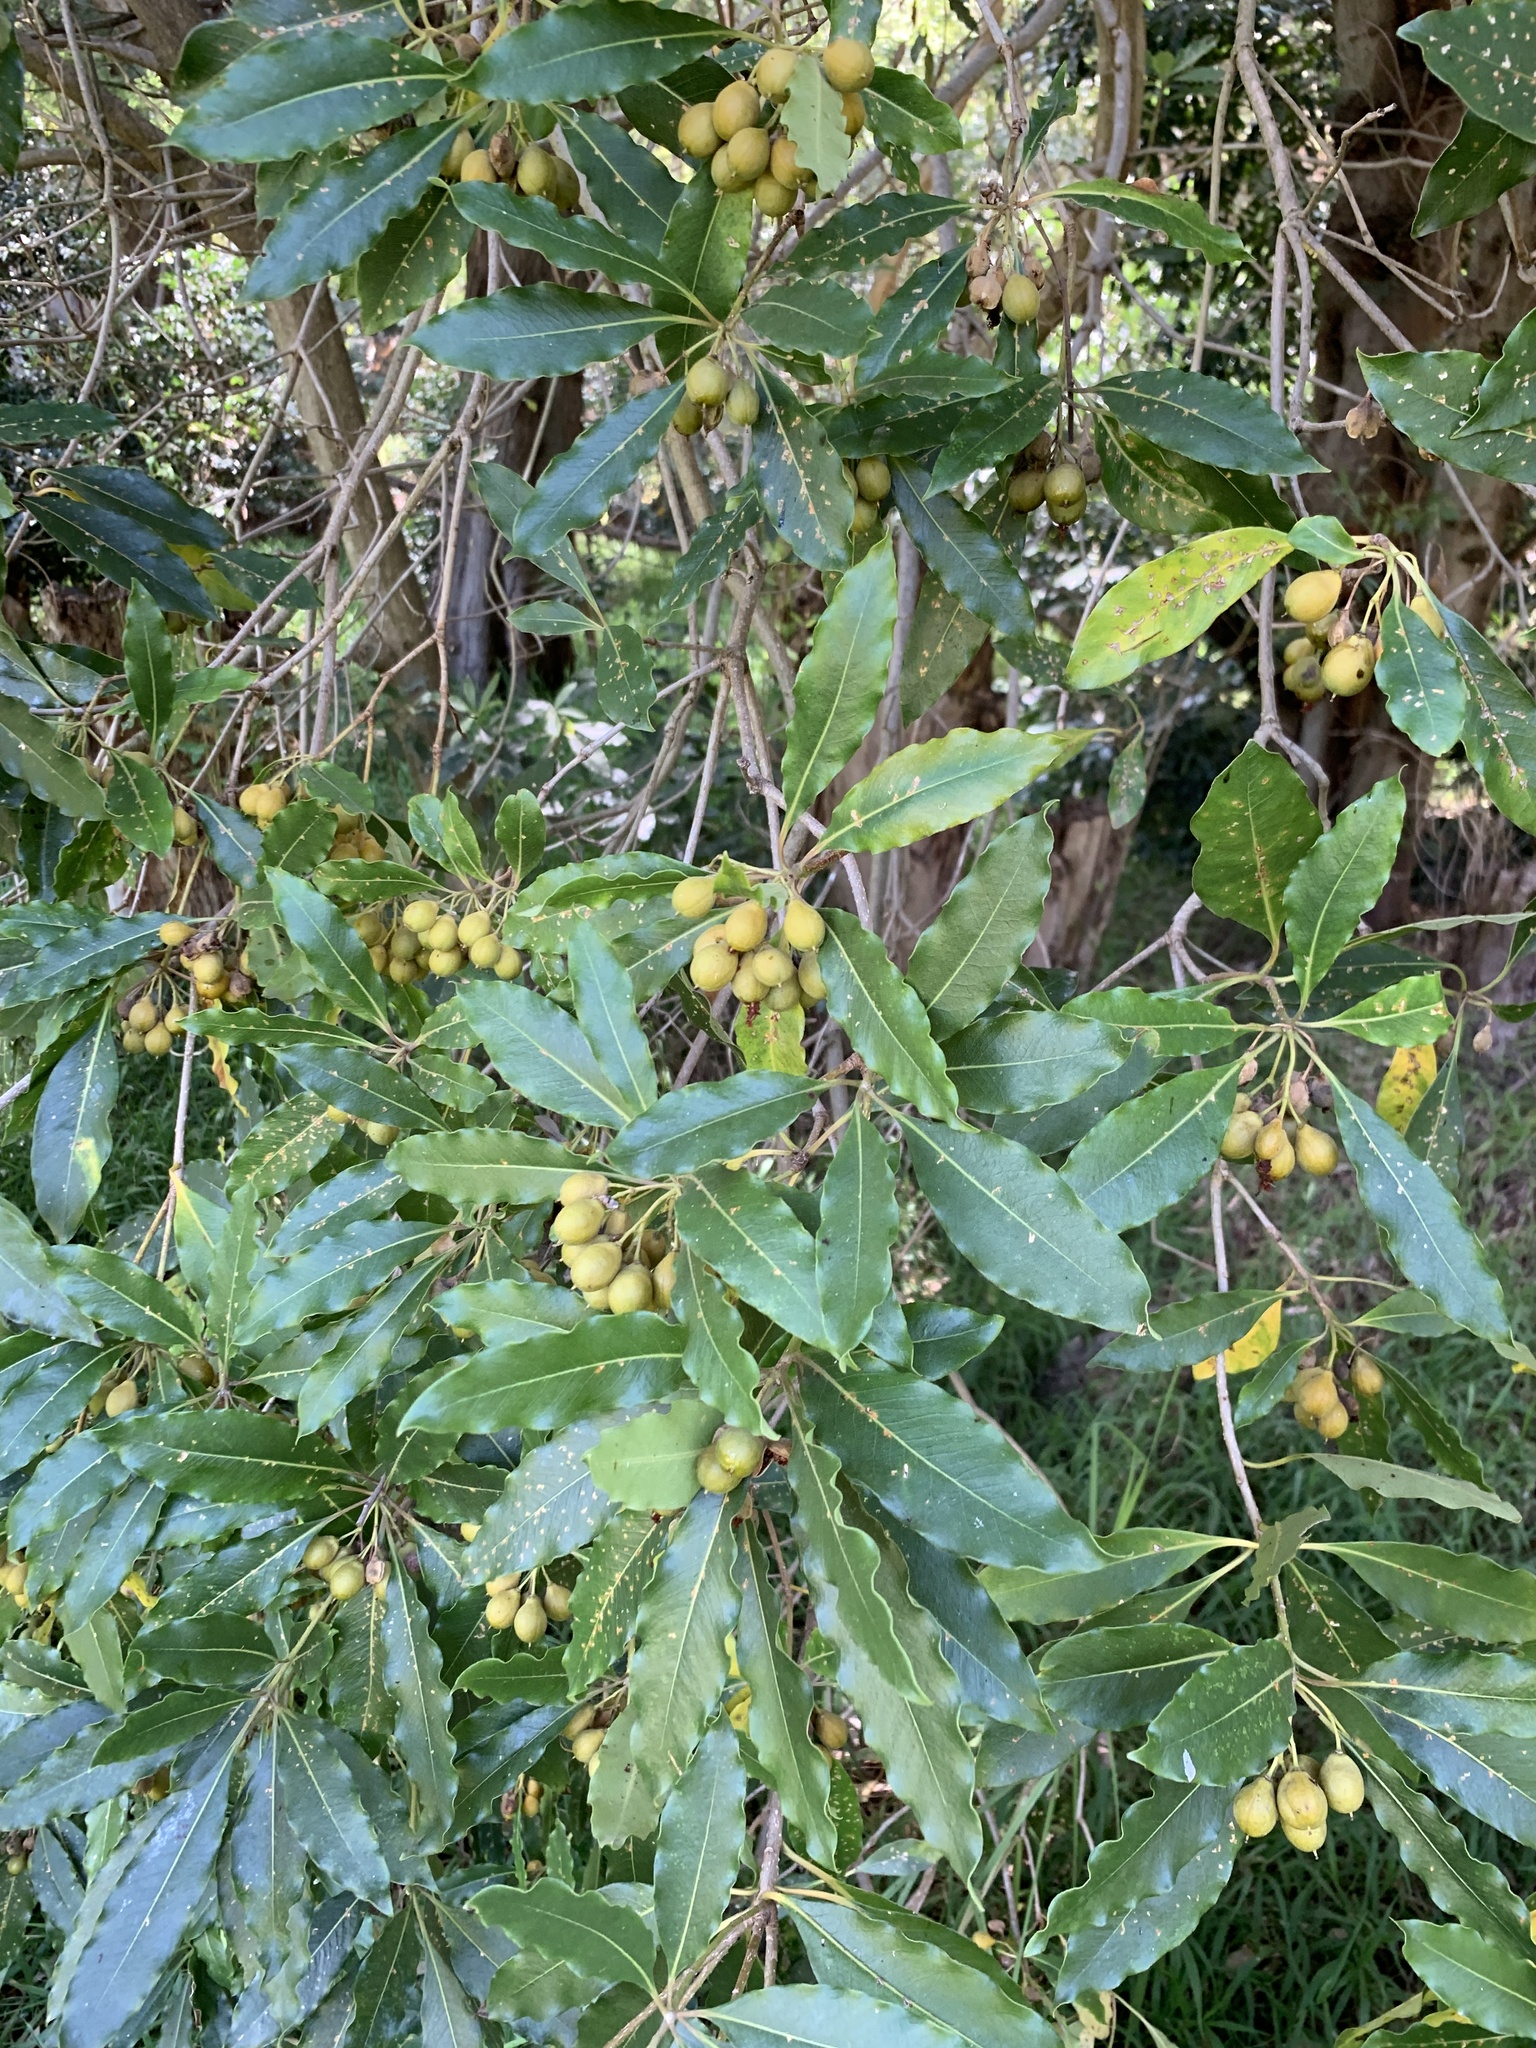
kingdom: Plantae
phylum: Tracheophyta
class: Magnoliopsida
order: Apiales
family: Pittosporaceae
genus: Pittosporum
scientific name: Pittosporum undulatum
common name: Australian cheesewood
